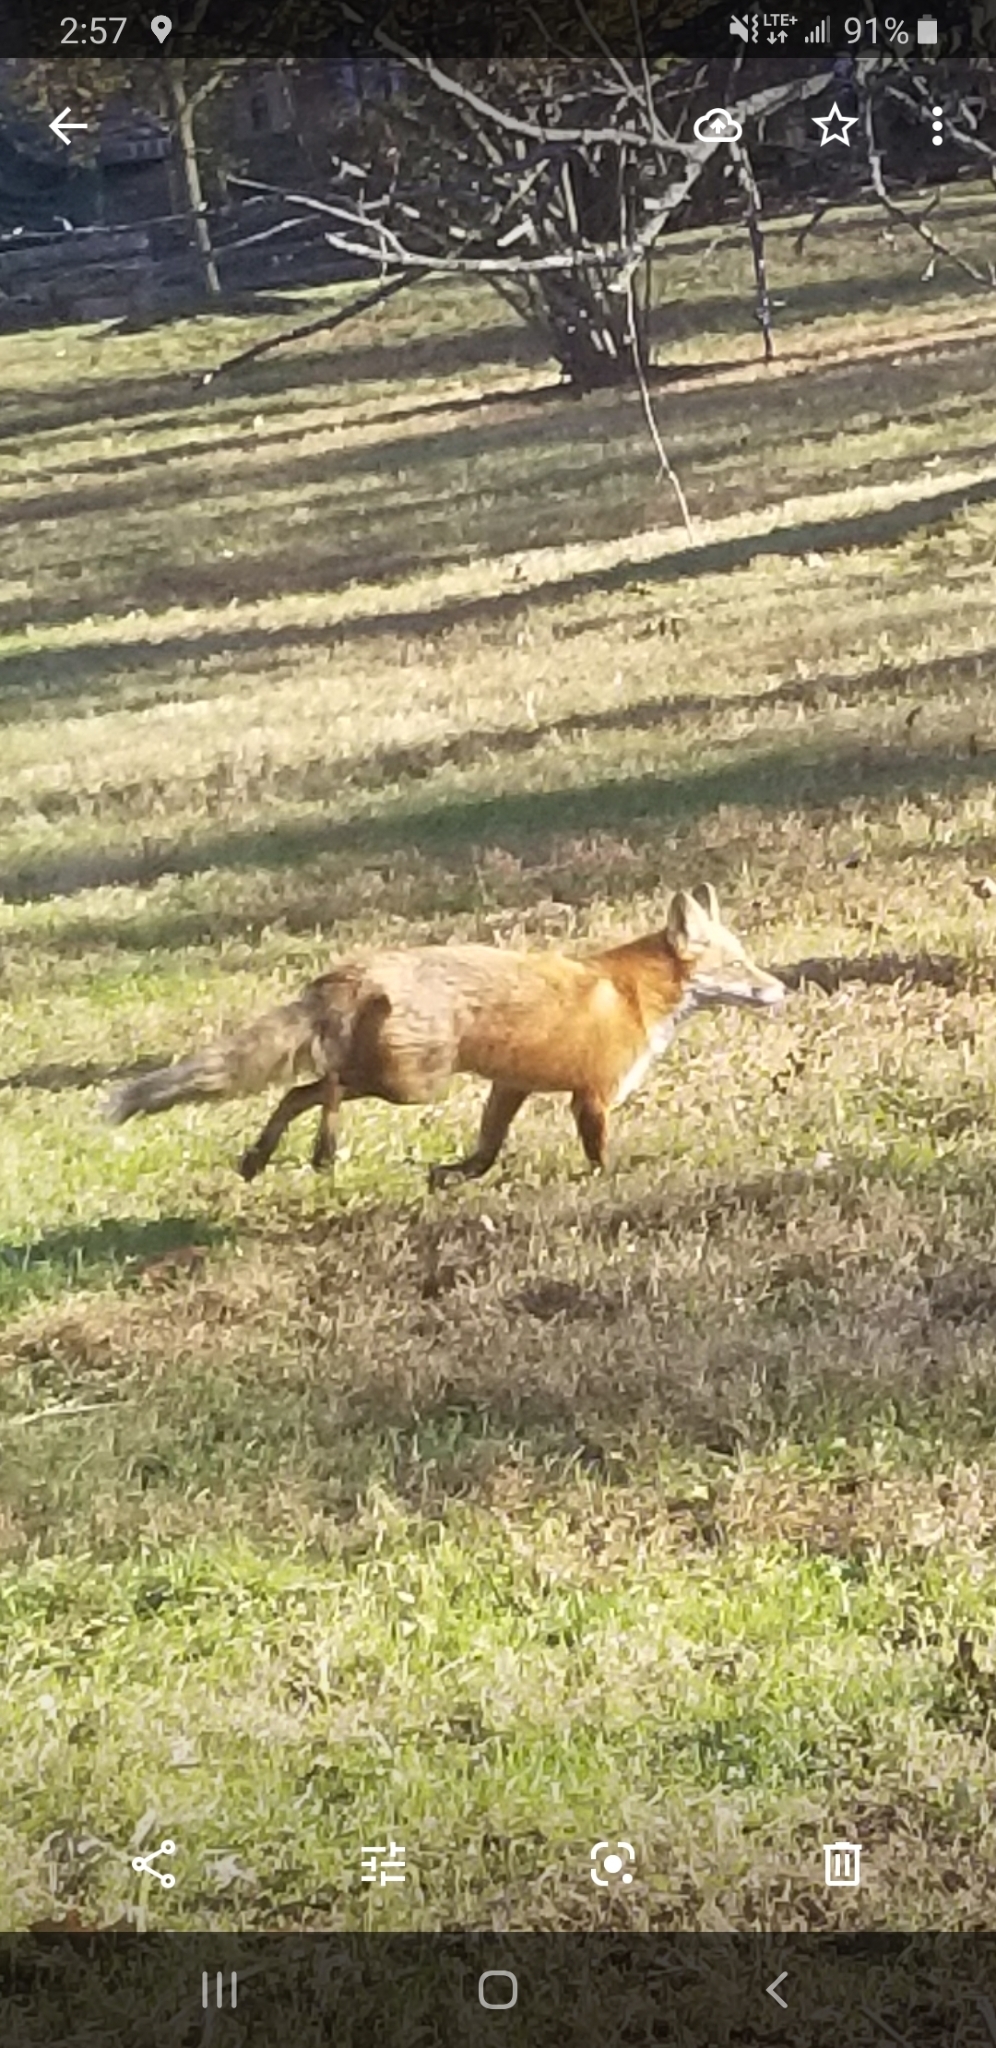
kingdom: Animalia
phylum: Chordata
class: Mammalia
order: Carnivora
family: Canidae
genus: Vulpes
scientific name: Vulpes vulpes
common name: Red fox
